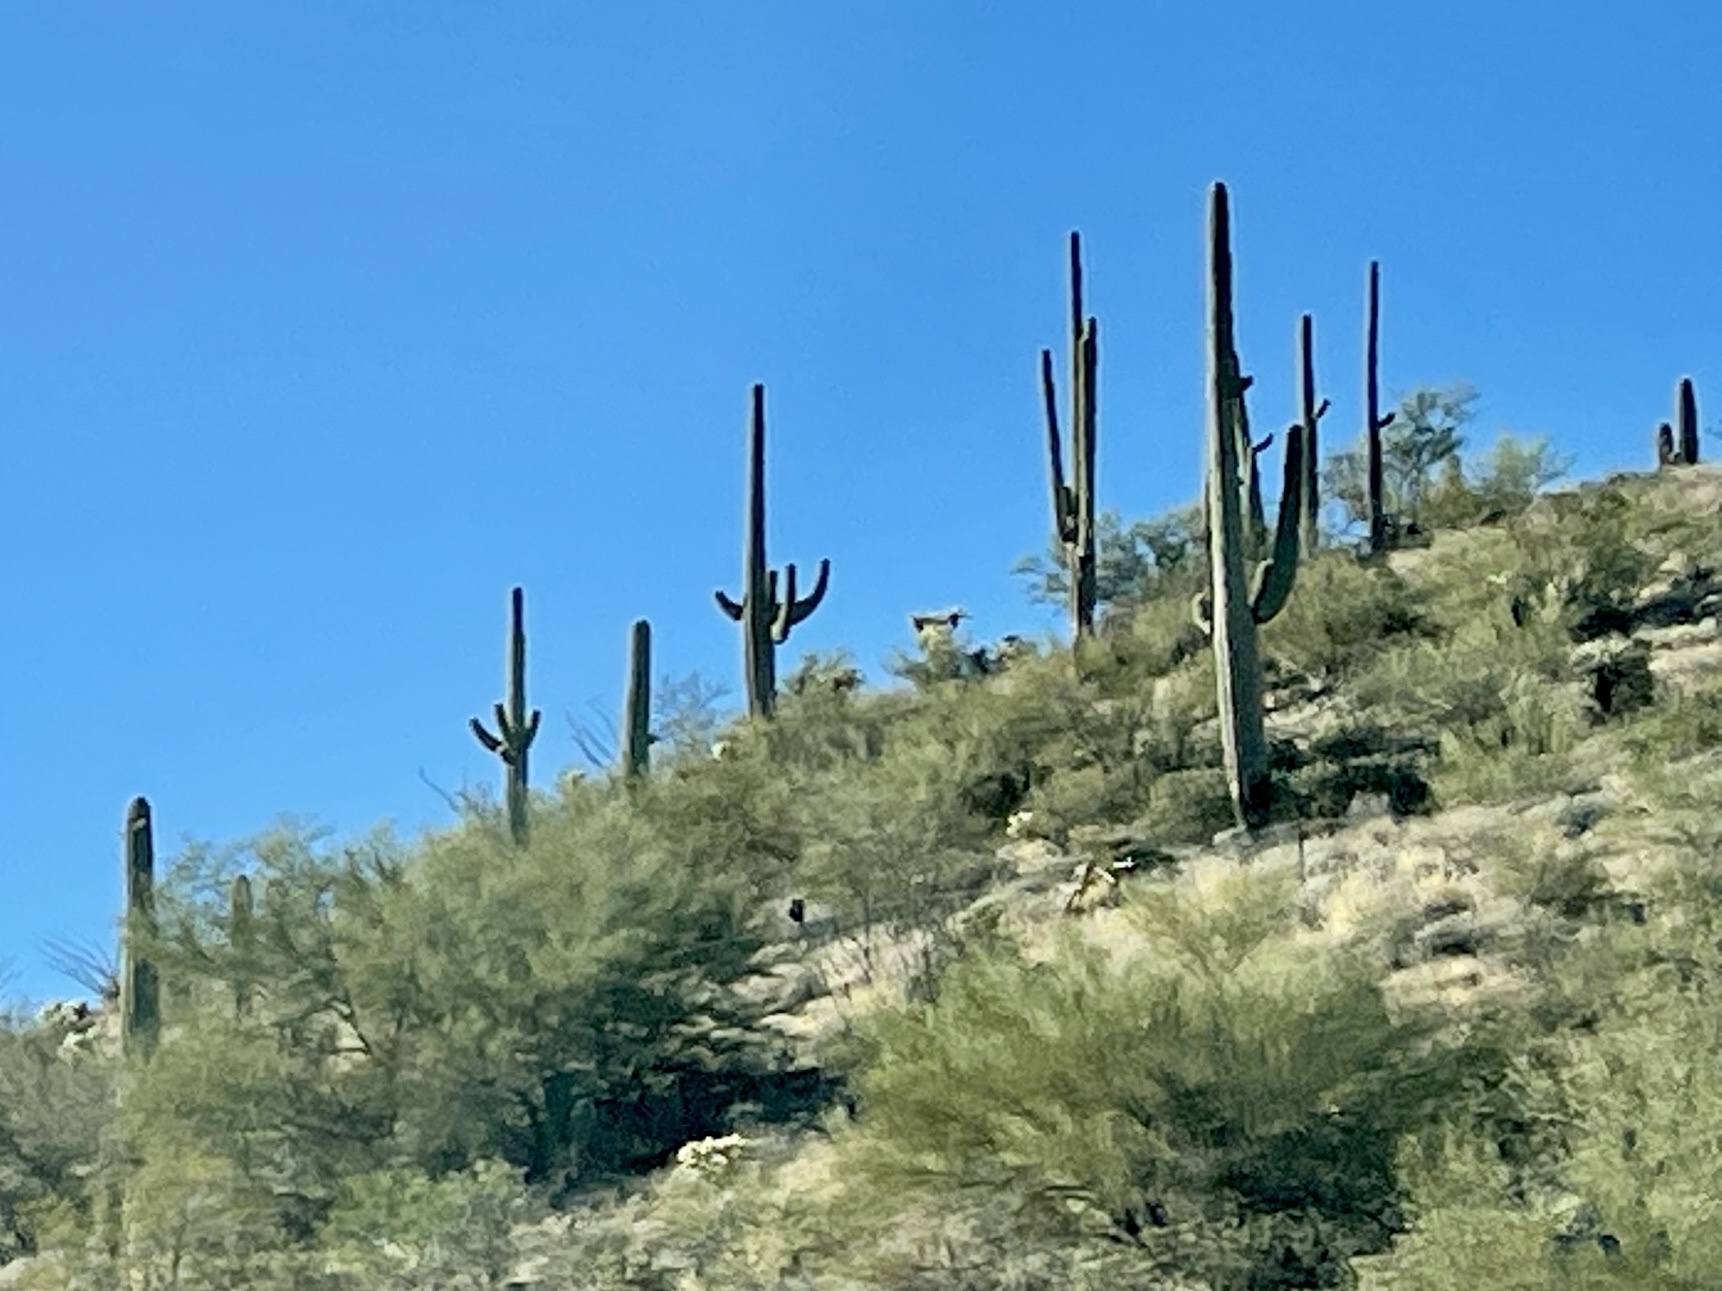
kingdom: Plantae
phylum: Tracheophyta
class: Magnoliopsida
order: Caryophyllales
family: Cactaceae
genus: Carnegiea
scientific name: Carnegiea gigantea
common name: Saguaro
